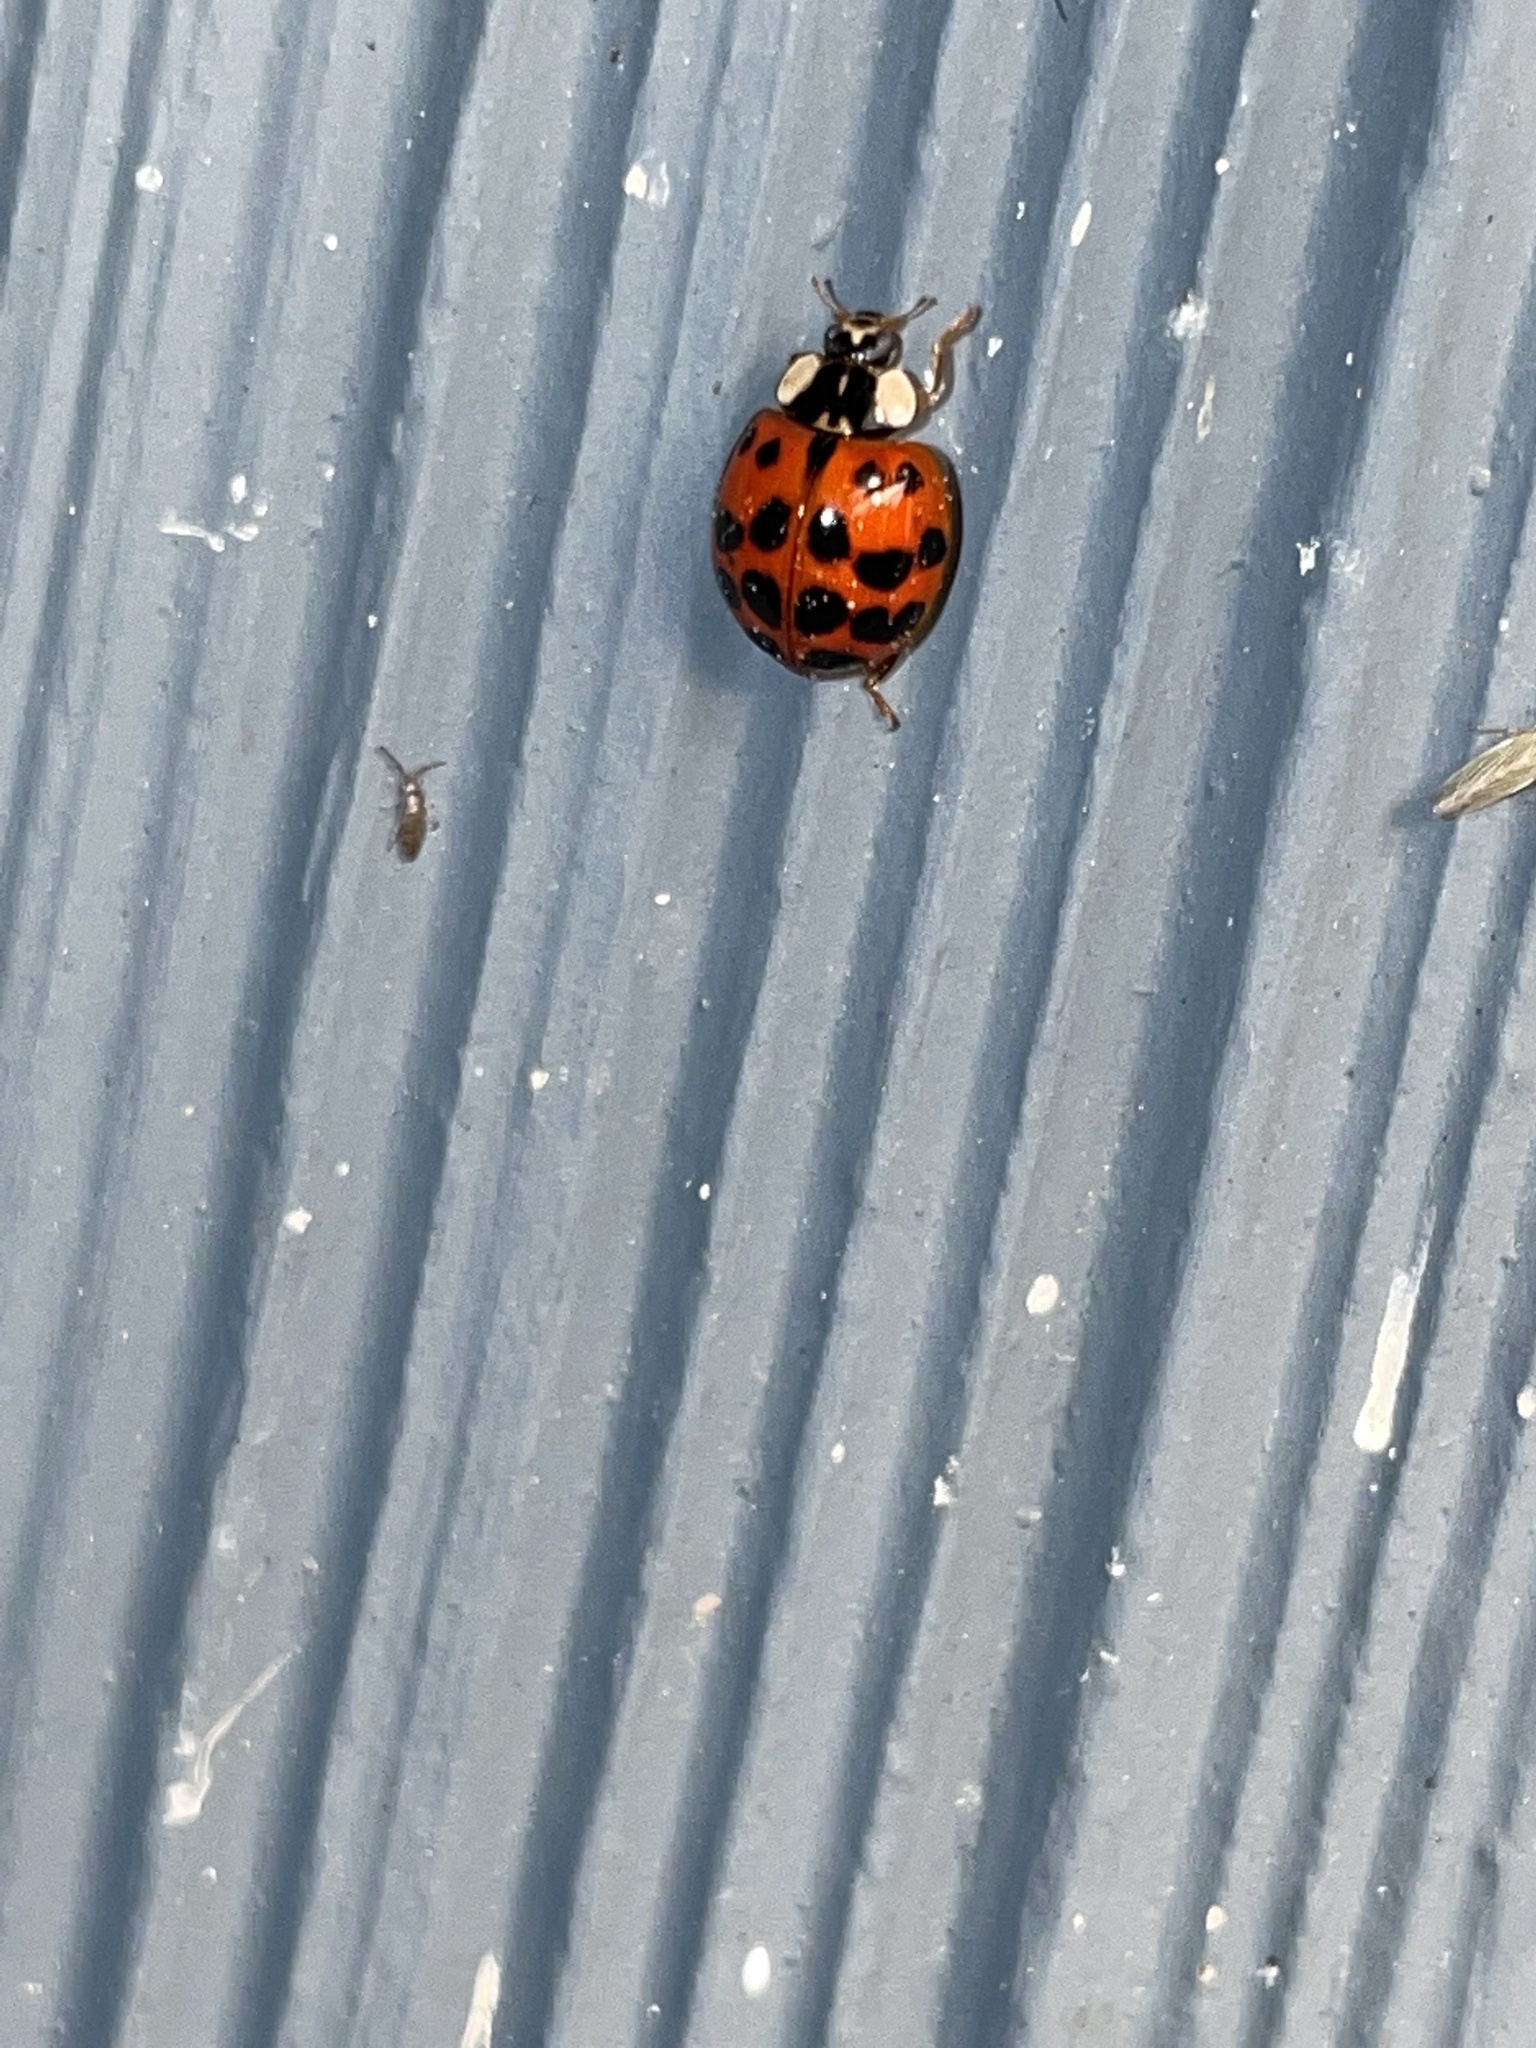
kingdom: Animalia
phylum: Arthropoda
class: Insecta
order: Coleoptera
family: Coccinellidae
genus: Harmonia
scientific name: Harmonia axyridis
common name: Harlequin ladybird
